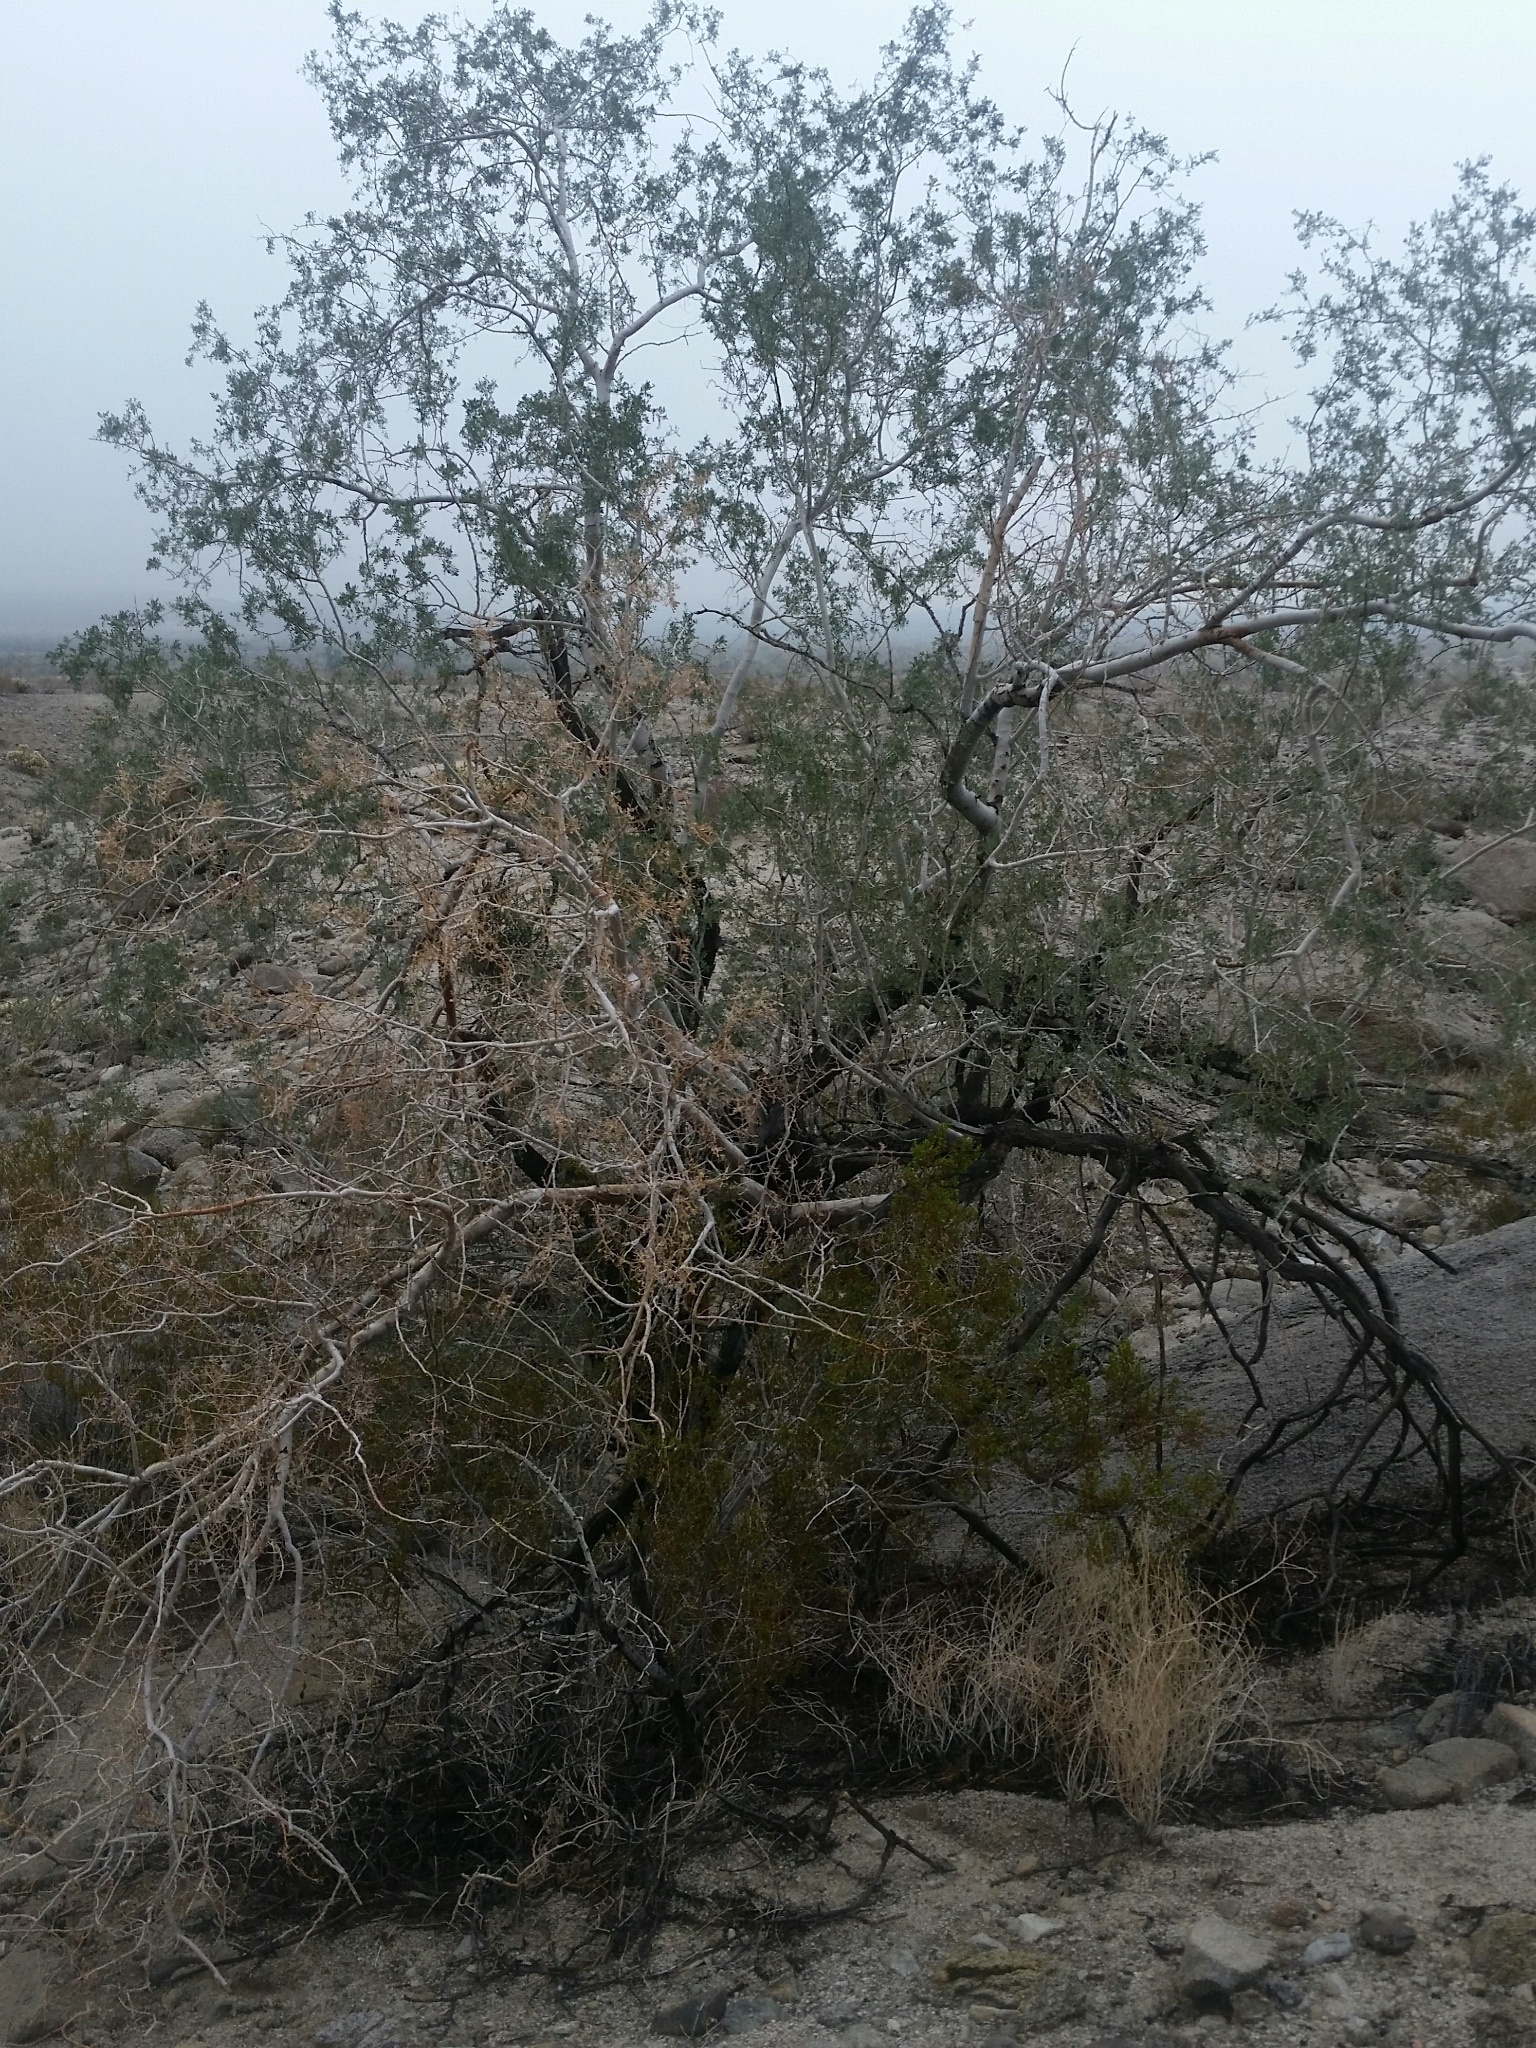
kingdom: Plantae
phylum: Tracheophyta
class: Magnoliopsida
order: Fabales
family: Fabaceae
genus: Olneya
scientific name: Olneya tesota
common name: Desert ironwood
